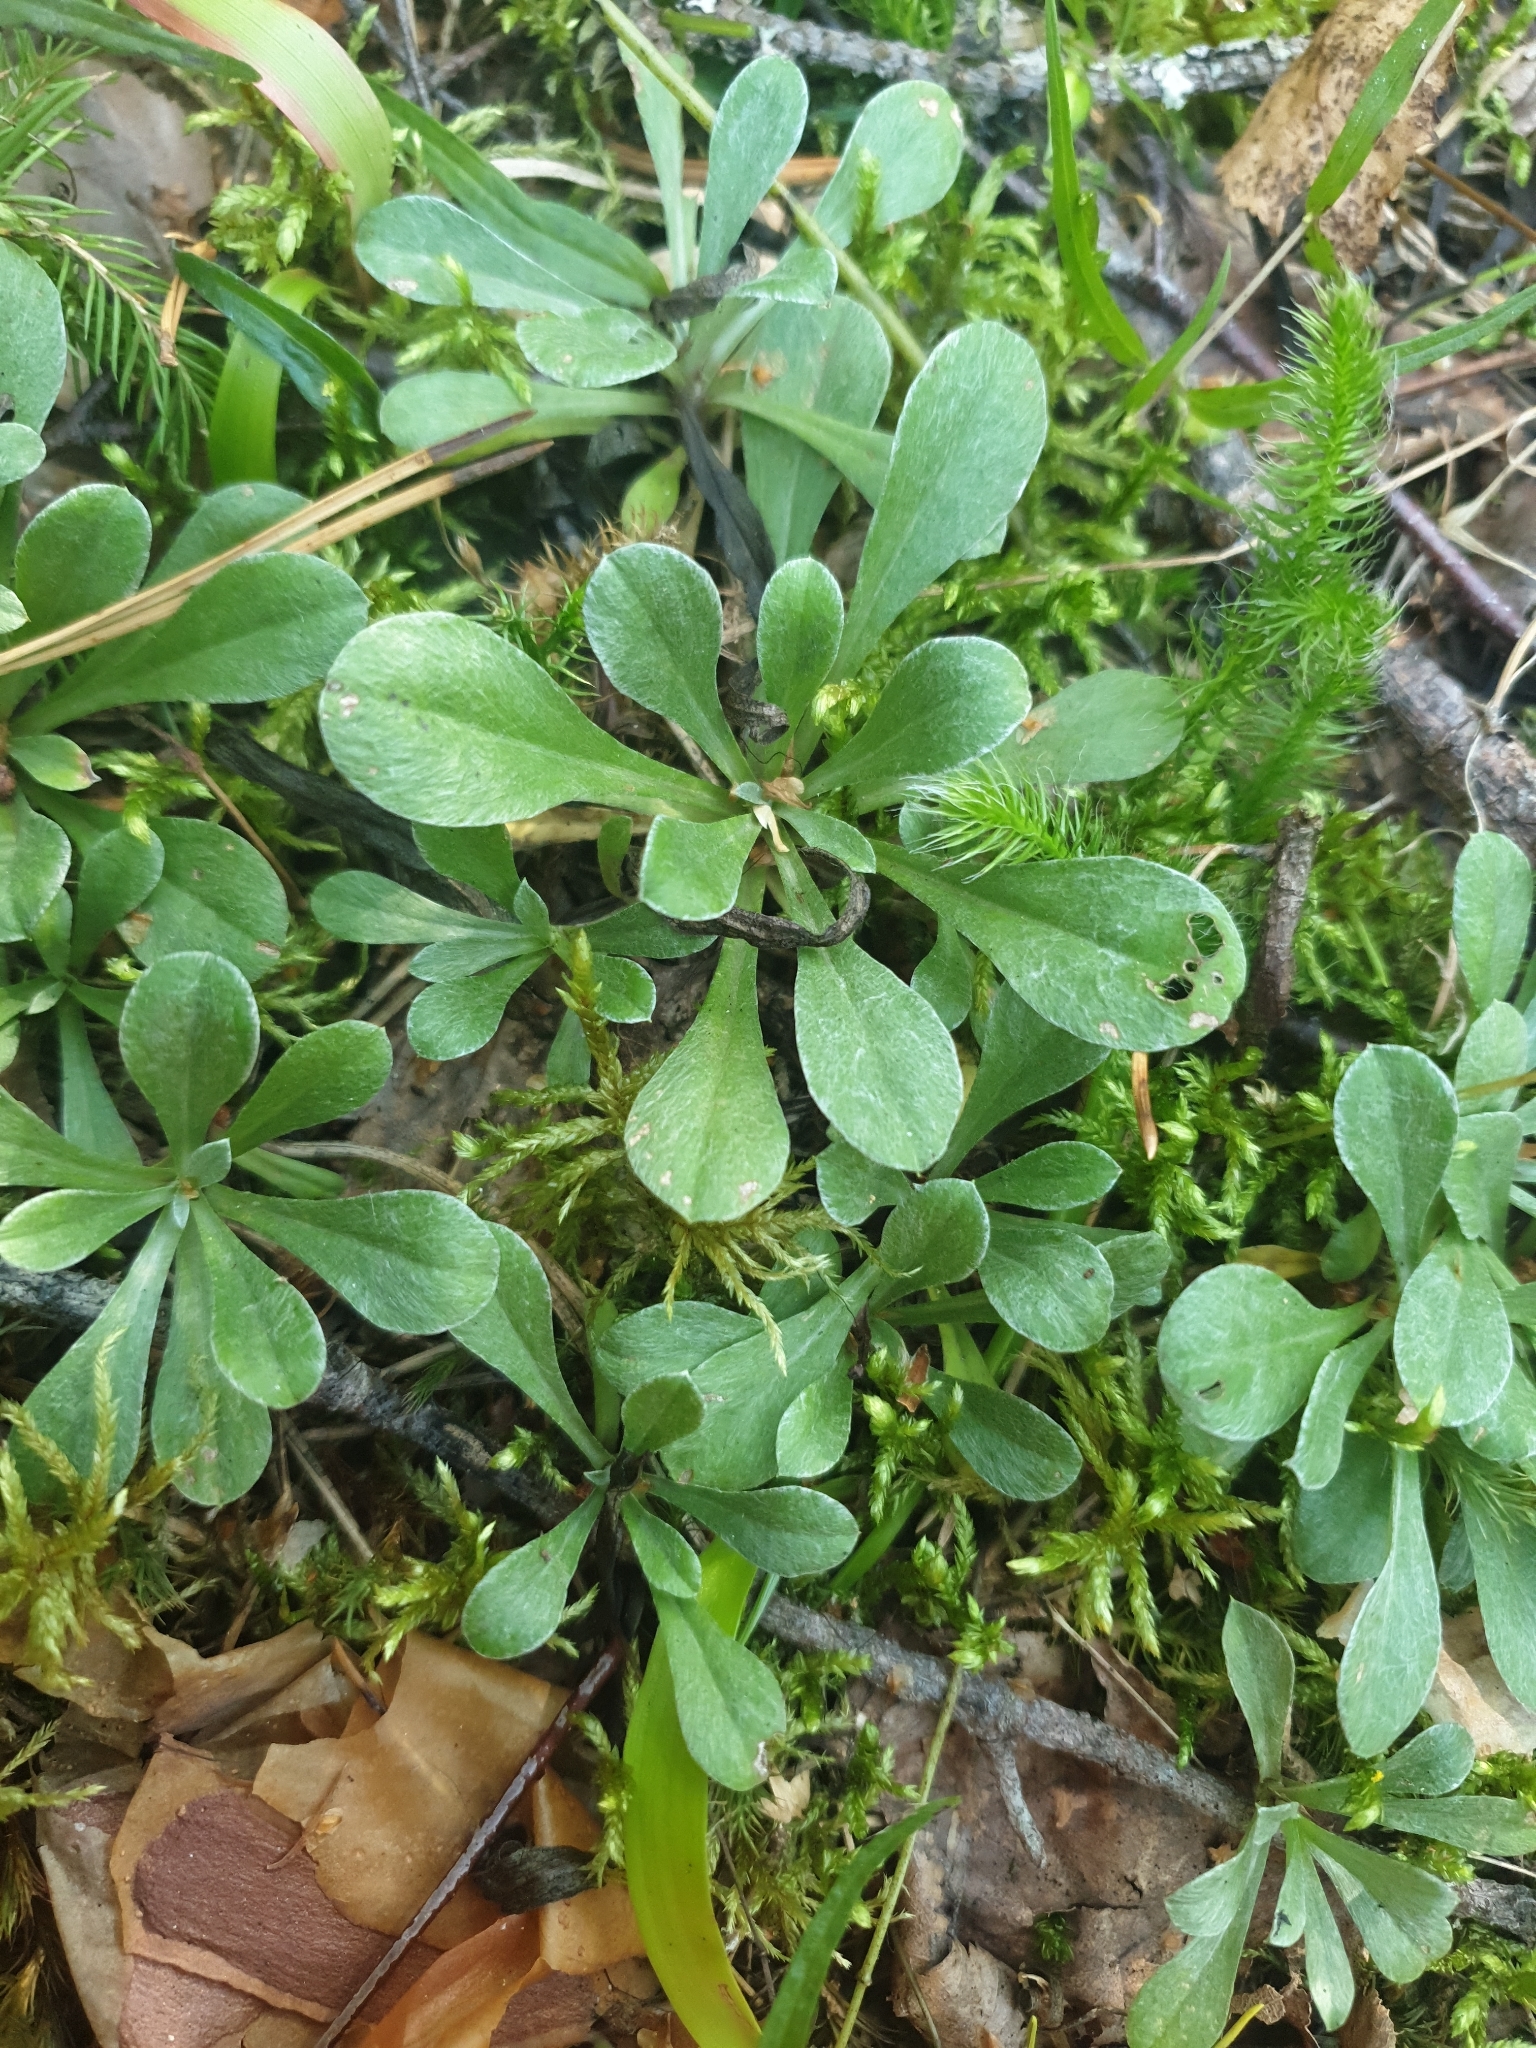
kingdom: Plantae
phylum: Tracheophyta
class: Magnoliopsida
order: Asterales
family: Asteraceae
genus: Antennaria
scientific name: Antennaria dioica
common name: Mountain everlasting
